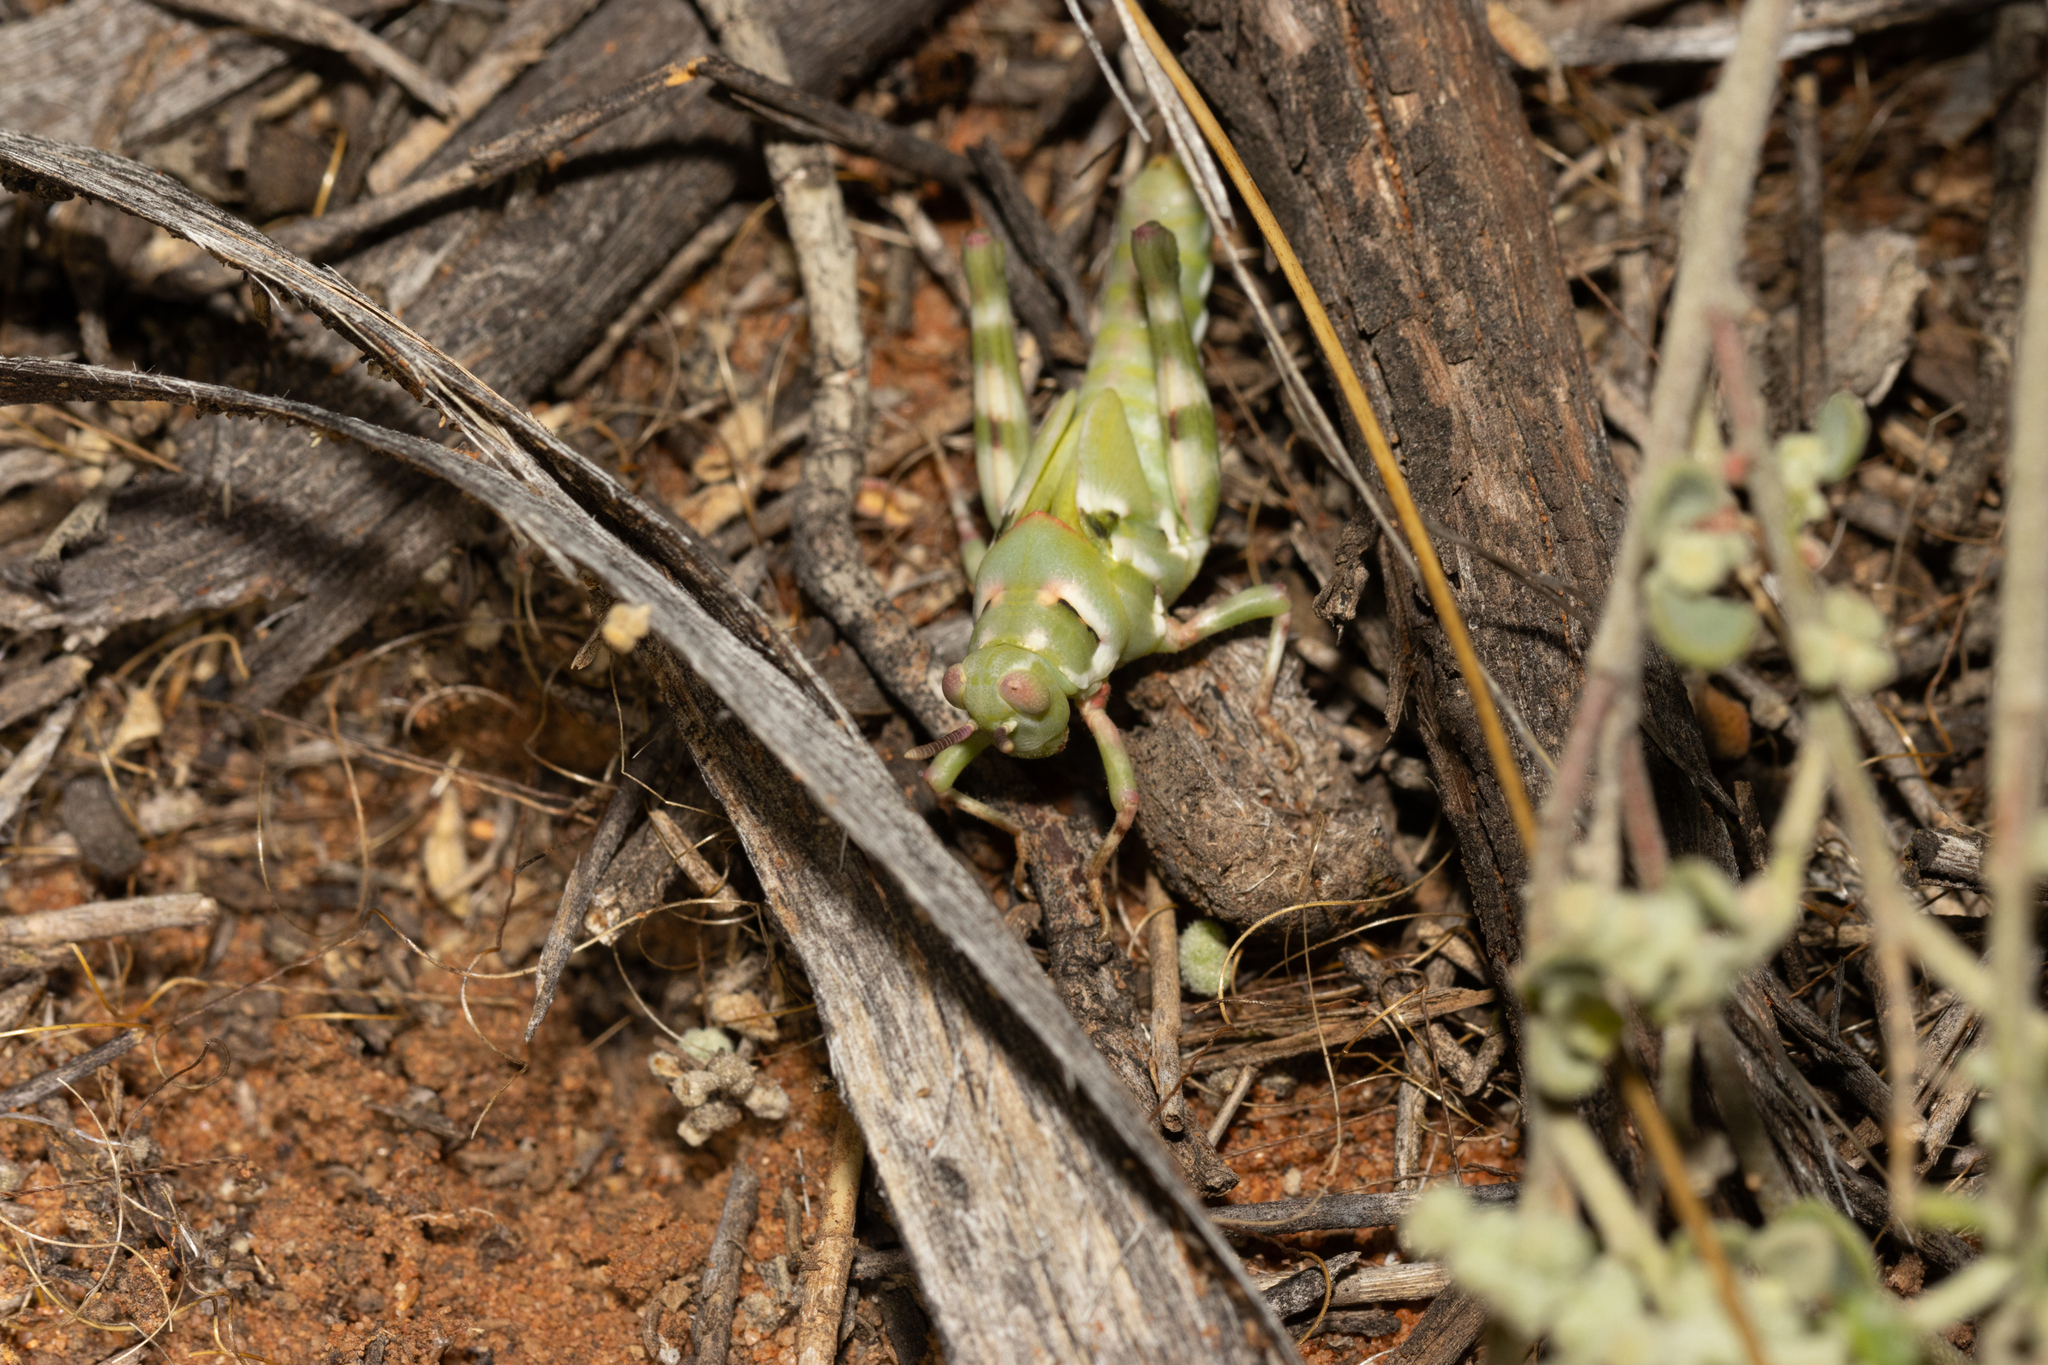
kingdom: Animalia
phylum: Arthropoda
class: Insecta
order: Orthoptera
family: Acrididae
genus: Scurra
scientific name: Scurra marmoralis
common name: Crepitating spurthroat
